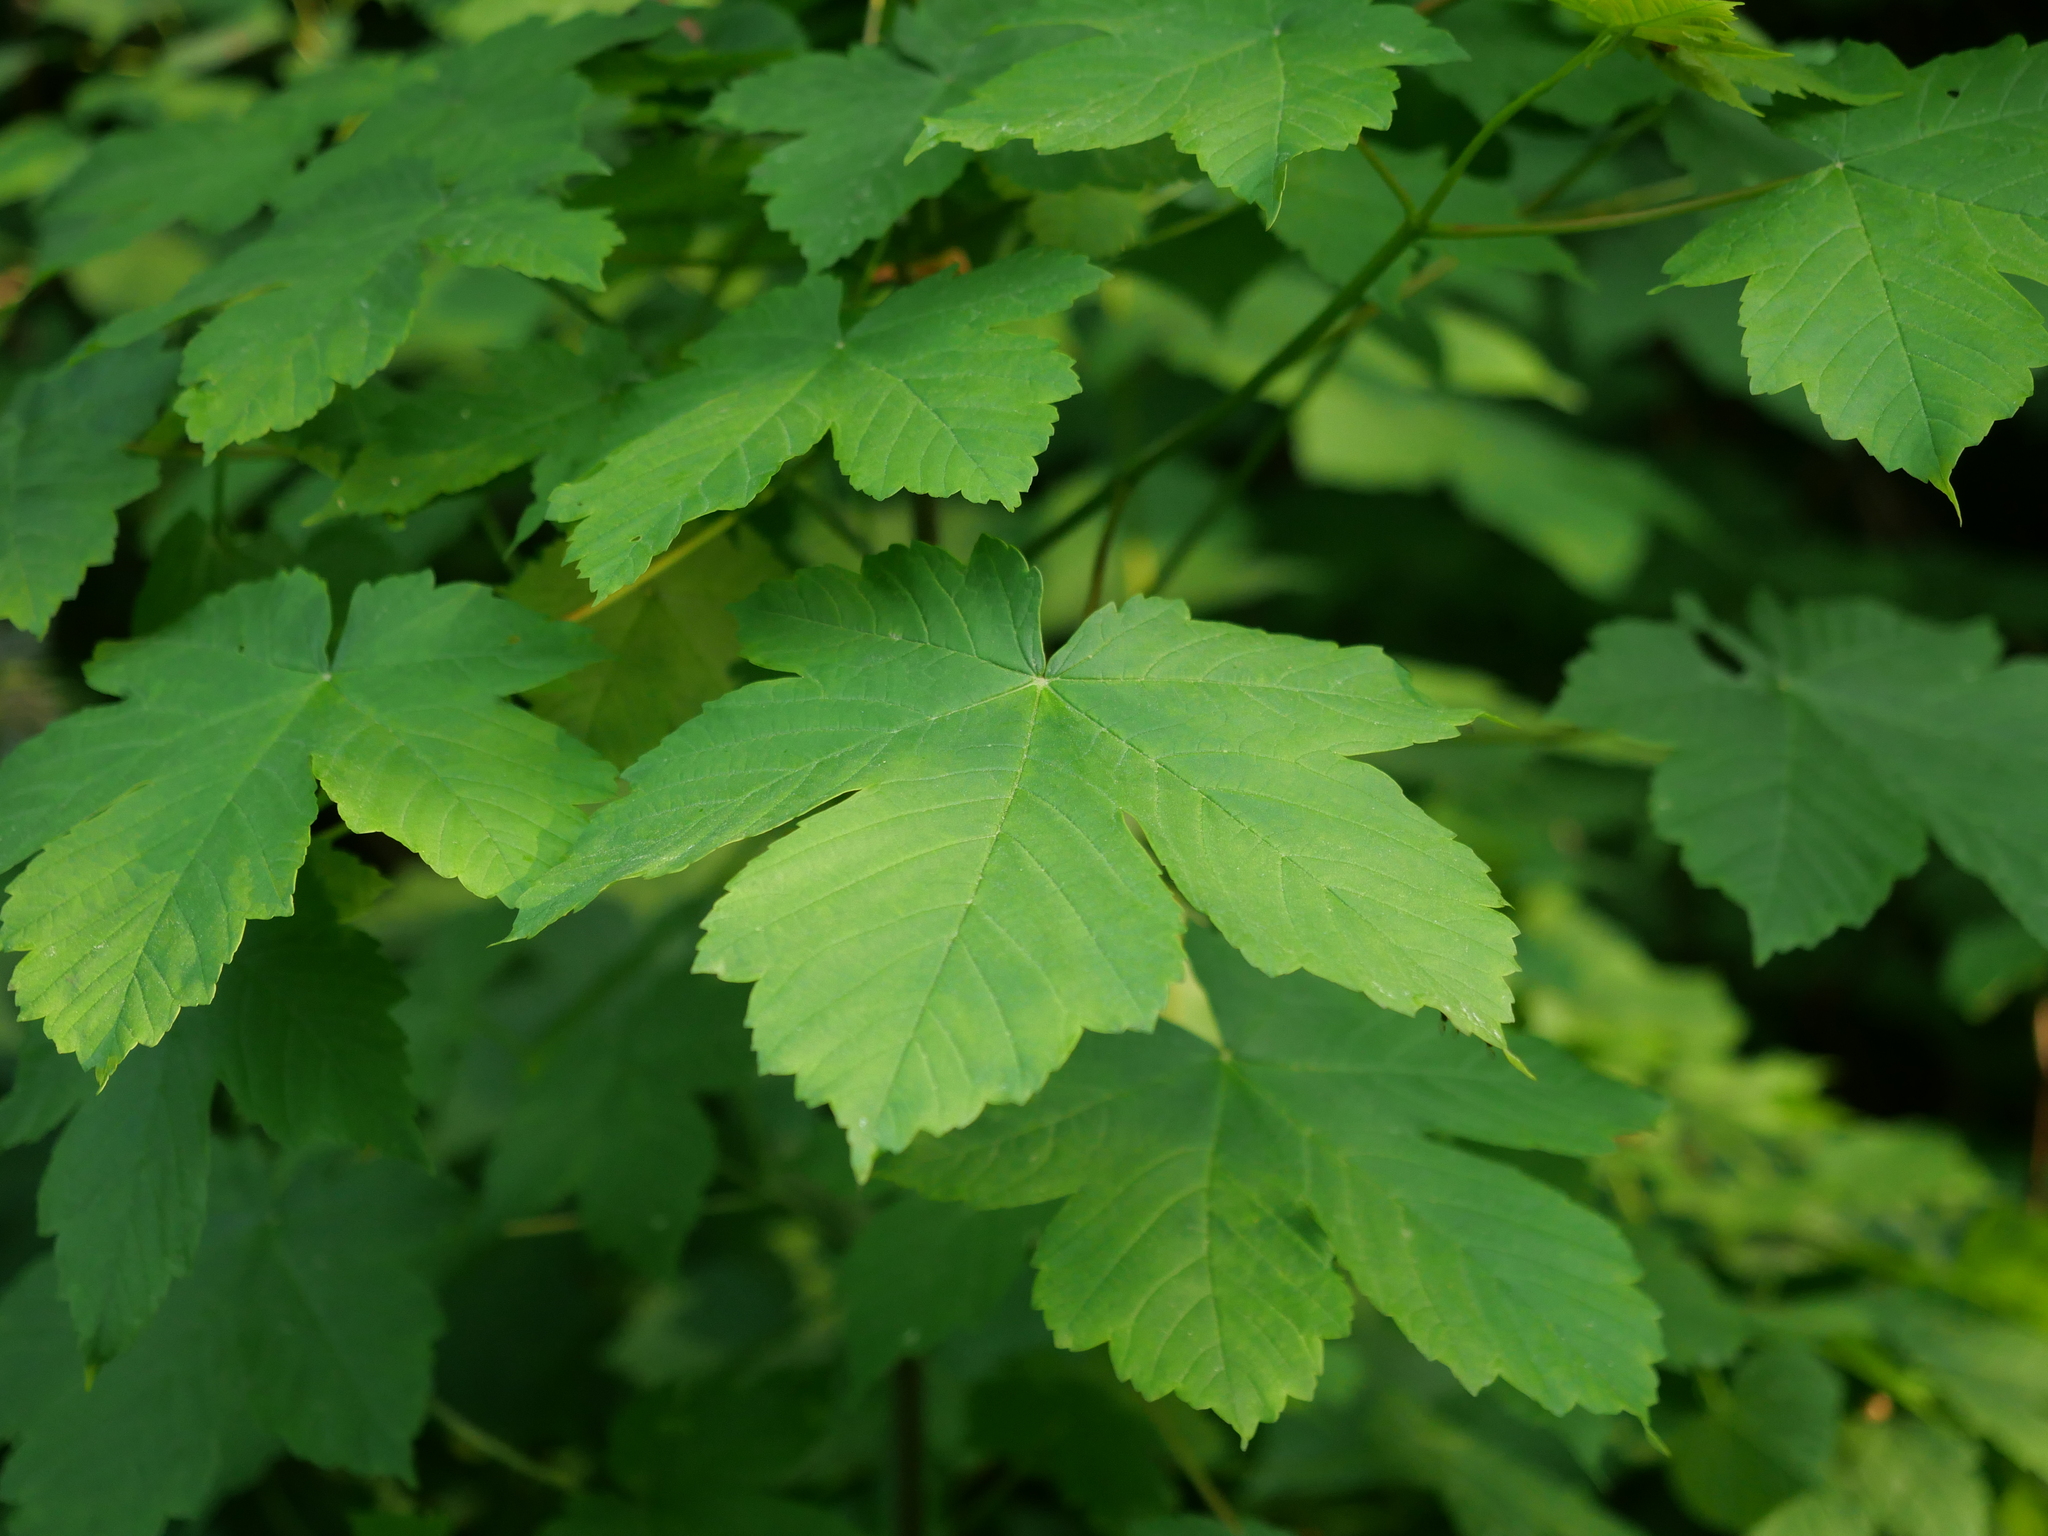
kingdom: Plantae
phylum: Tracheophyta
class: Magnoliopsida
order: Sapindales
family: Sapindaceae
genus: Acer
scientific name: Acer pseudoplatanus
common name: Sycamore
